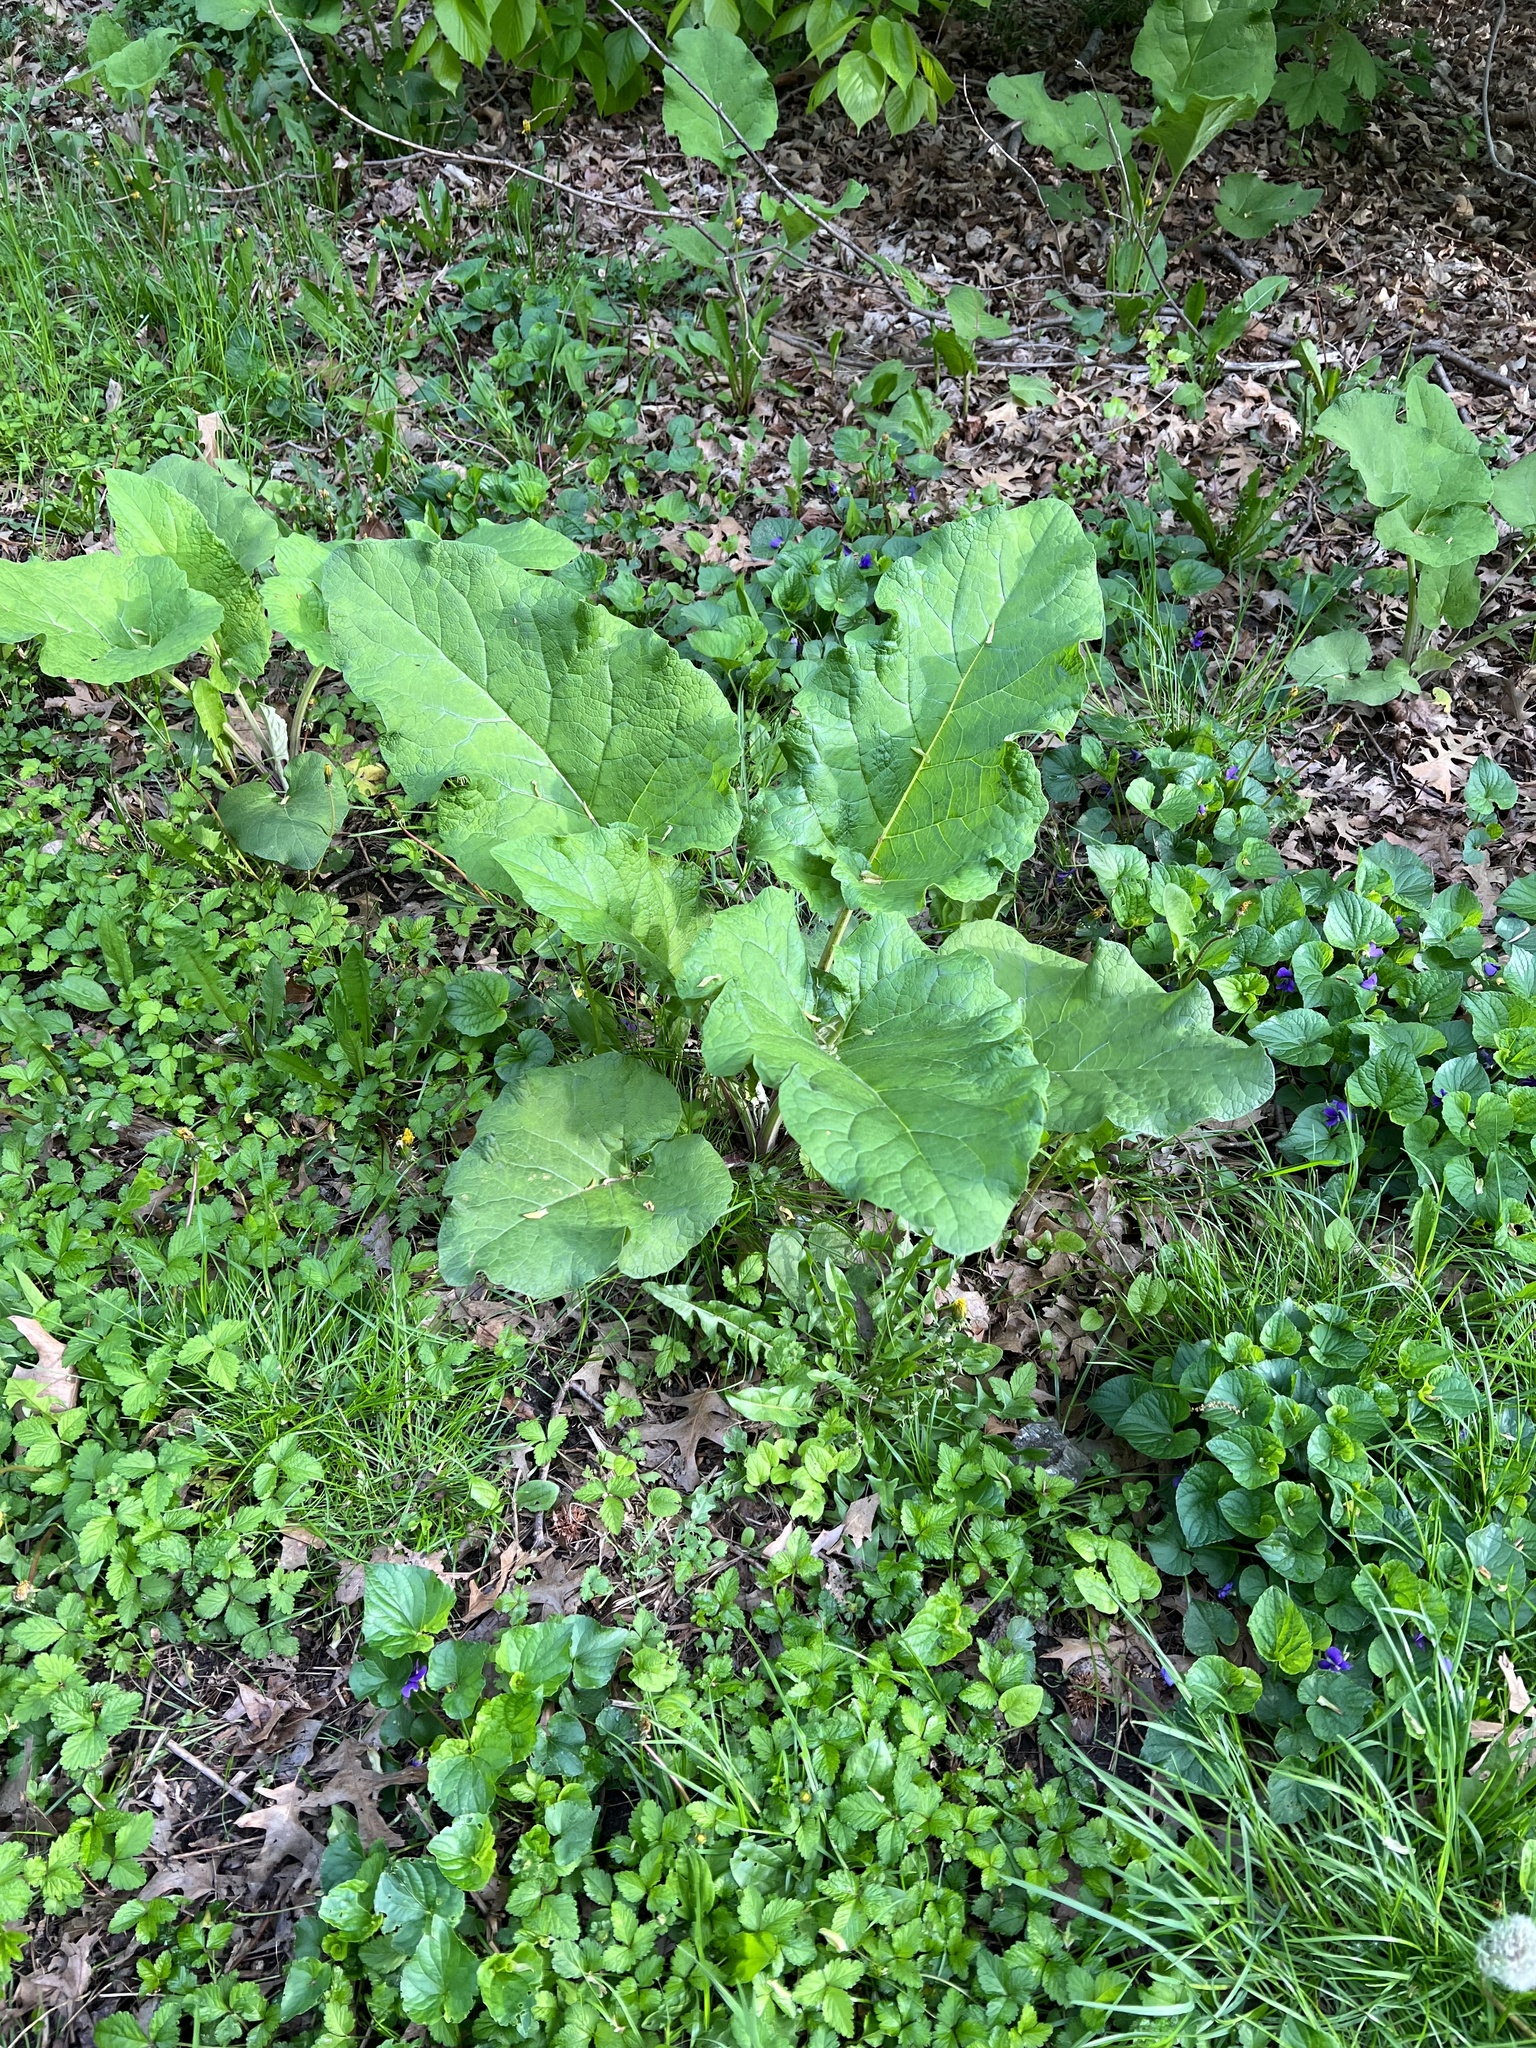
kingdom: Plantae
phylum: Tracheophyta
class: Magnoliopsida
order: Asterales
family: Asteraceae
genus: Arctium
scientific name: Arctium
